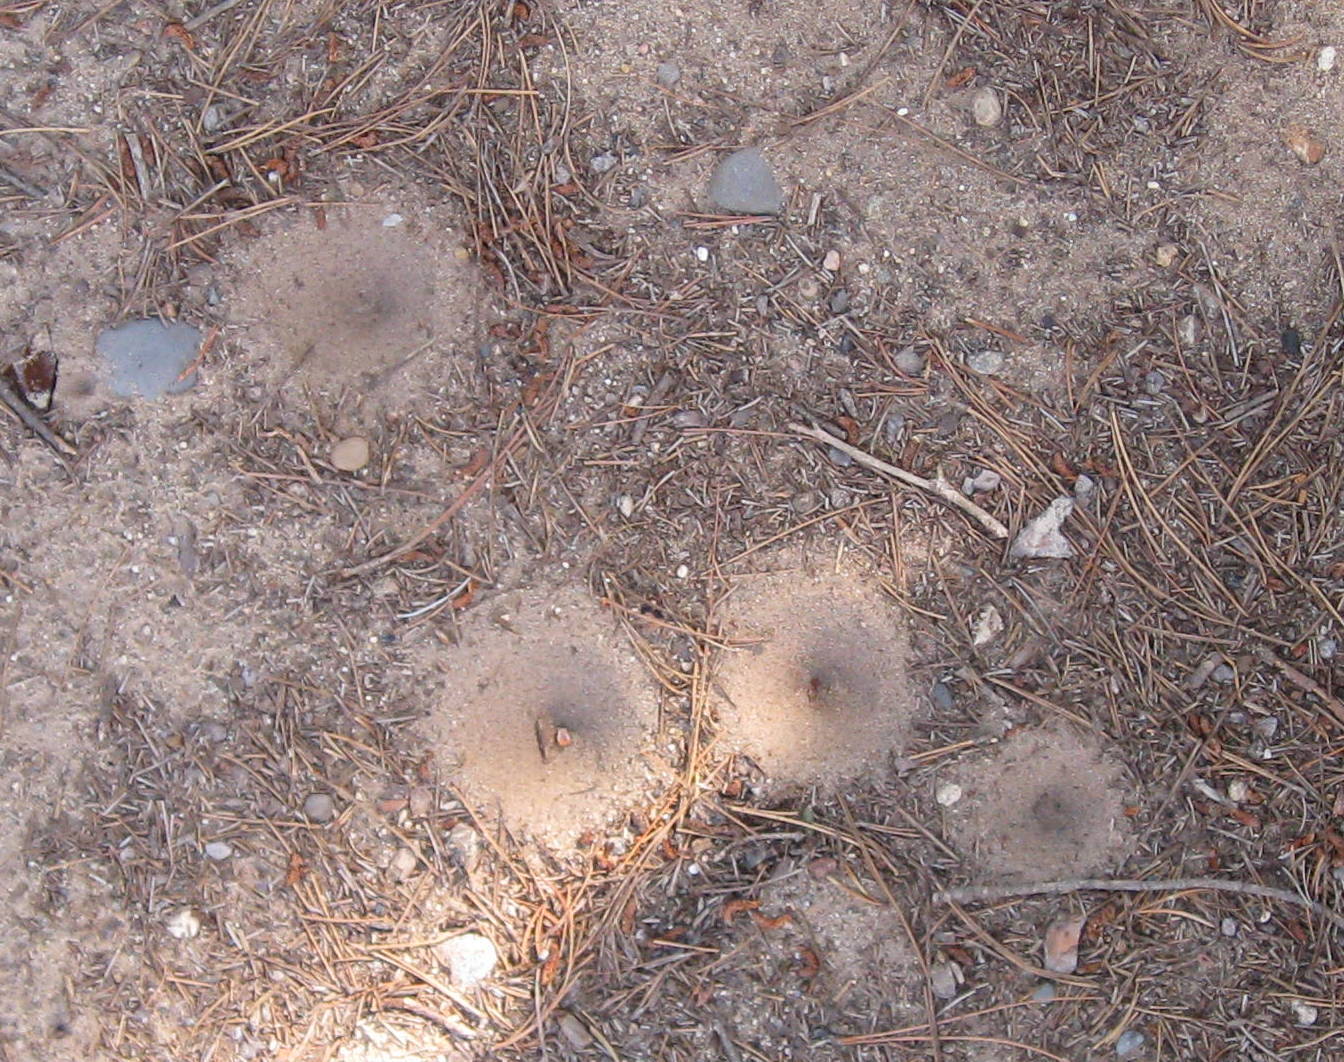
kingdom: Animalia
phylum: Arthropoda
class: Insecta
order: Neuroptera
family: Myrmeleontidae
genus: Myrmeleon
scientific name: Myrmeleon
